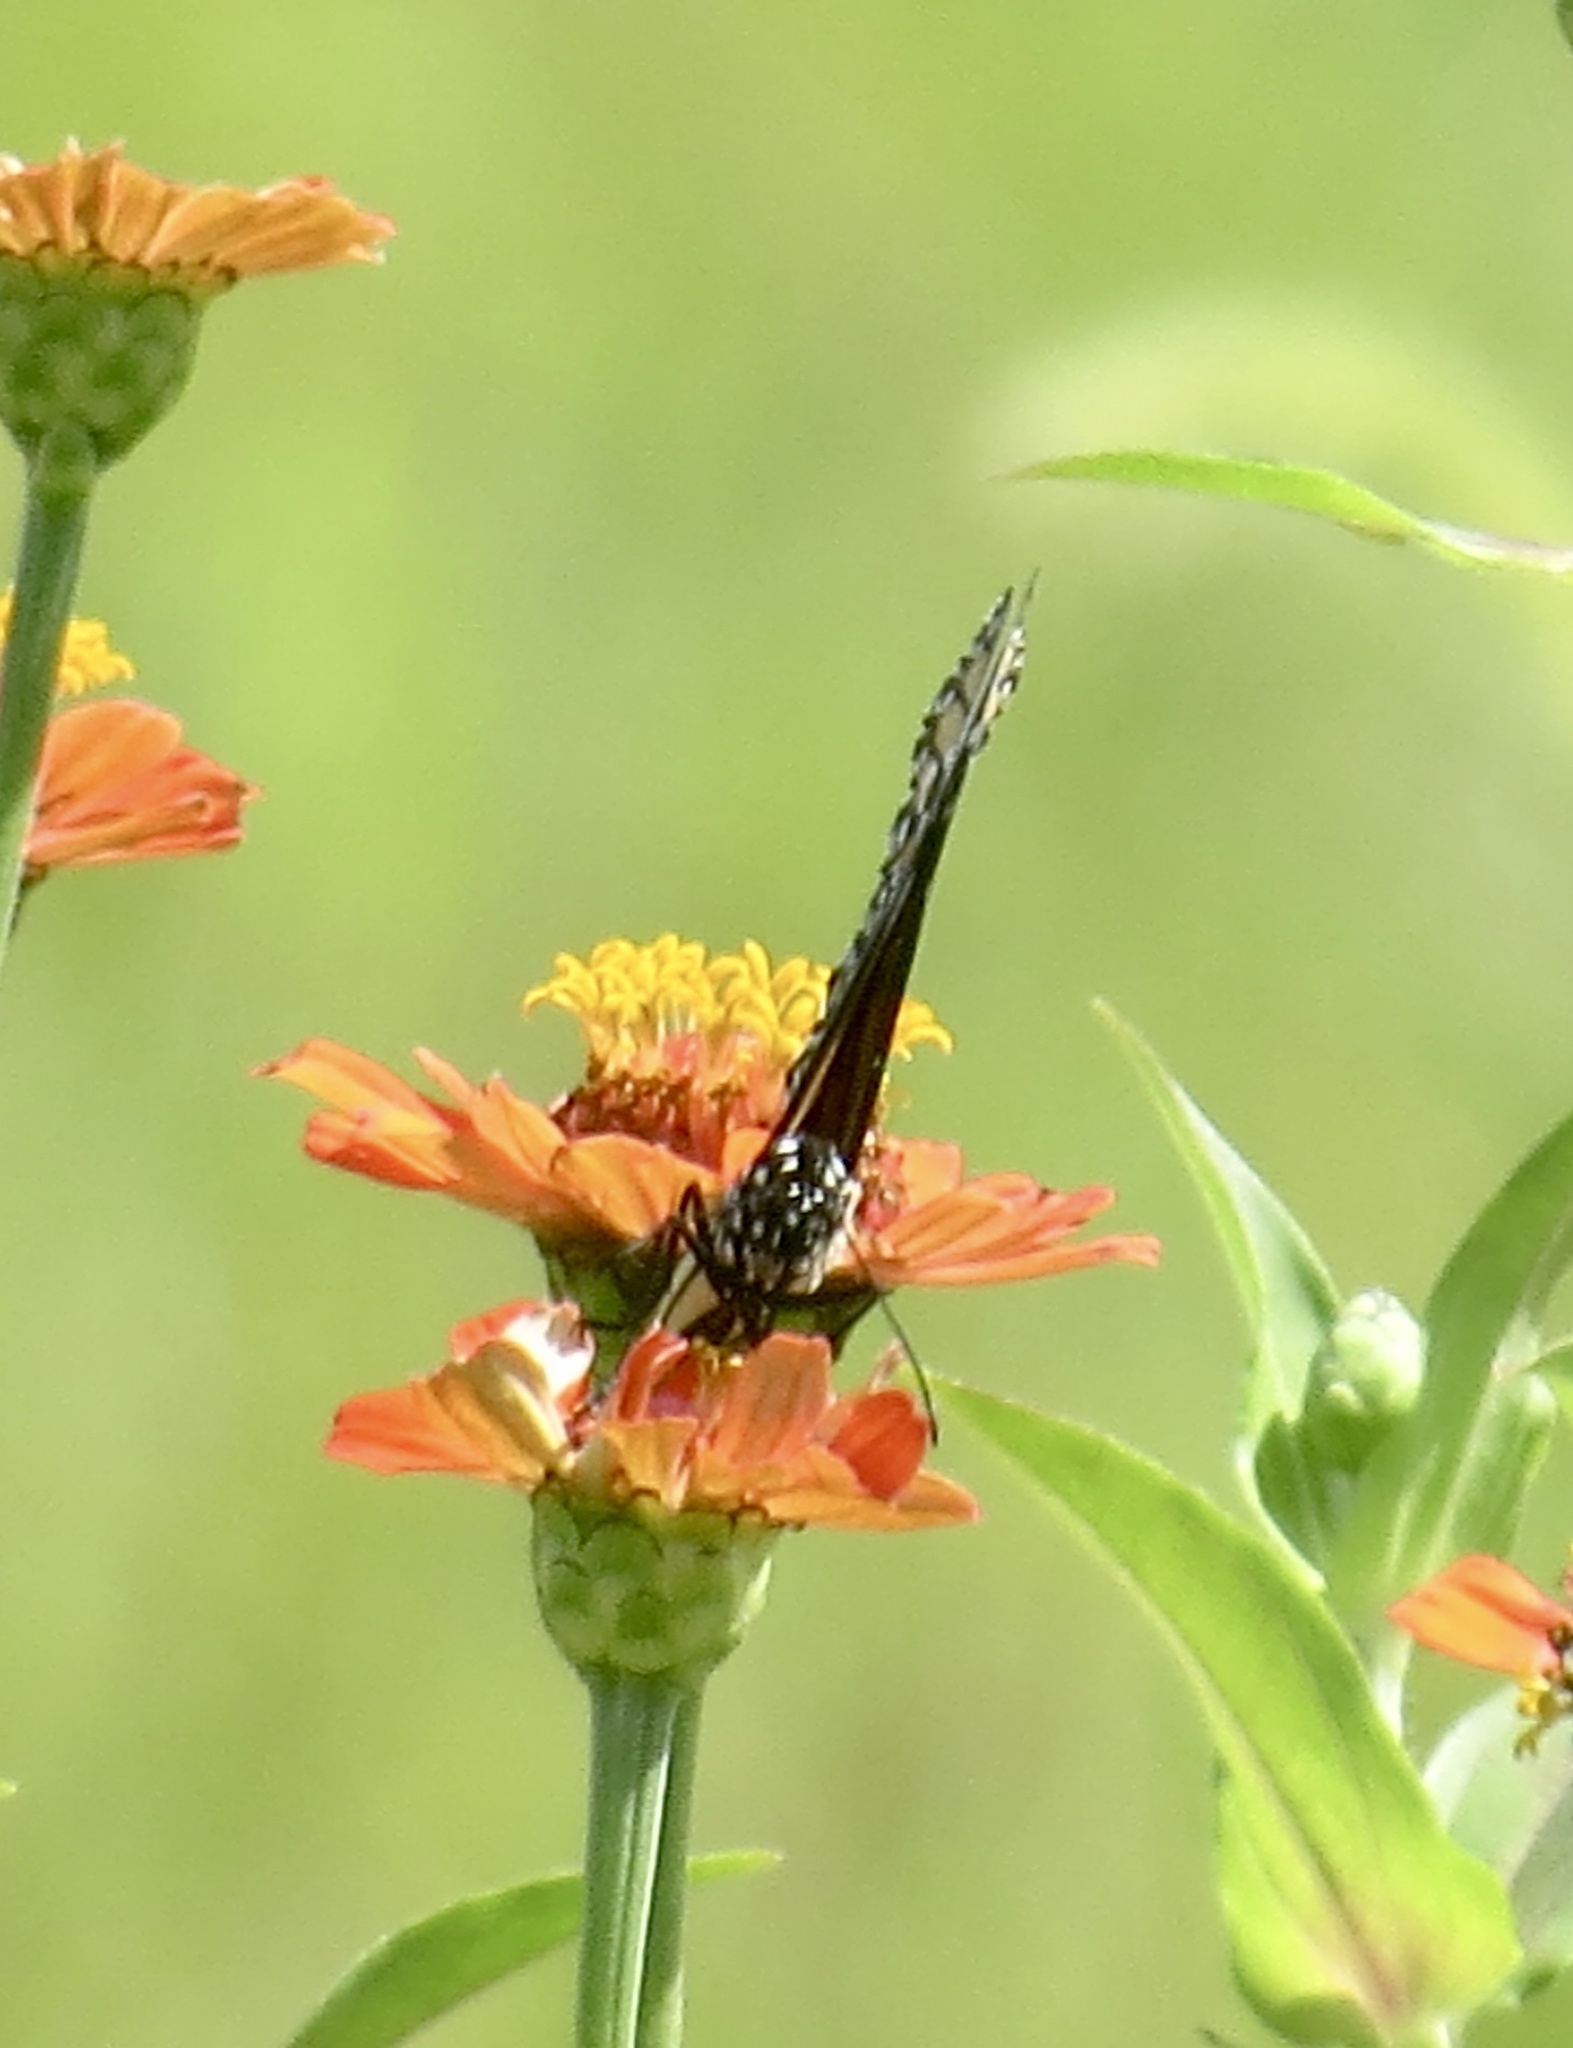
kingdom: Animalia
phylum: Arthropoda
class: Insecta
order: Lepidoptera
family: Nymphalidae
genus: Danaus
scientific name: Danaus plexippus
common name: Monarch
